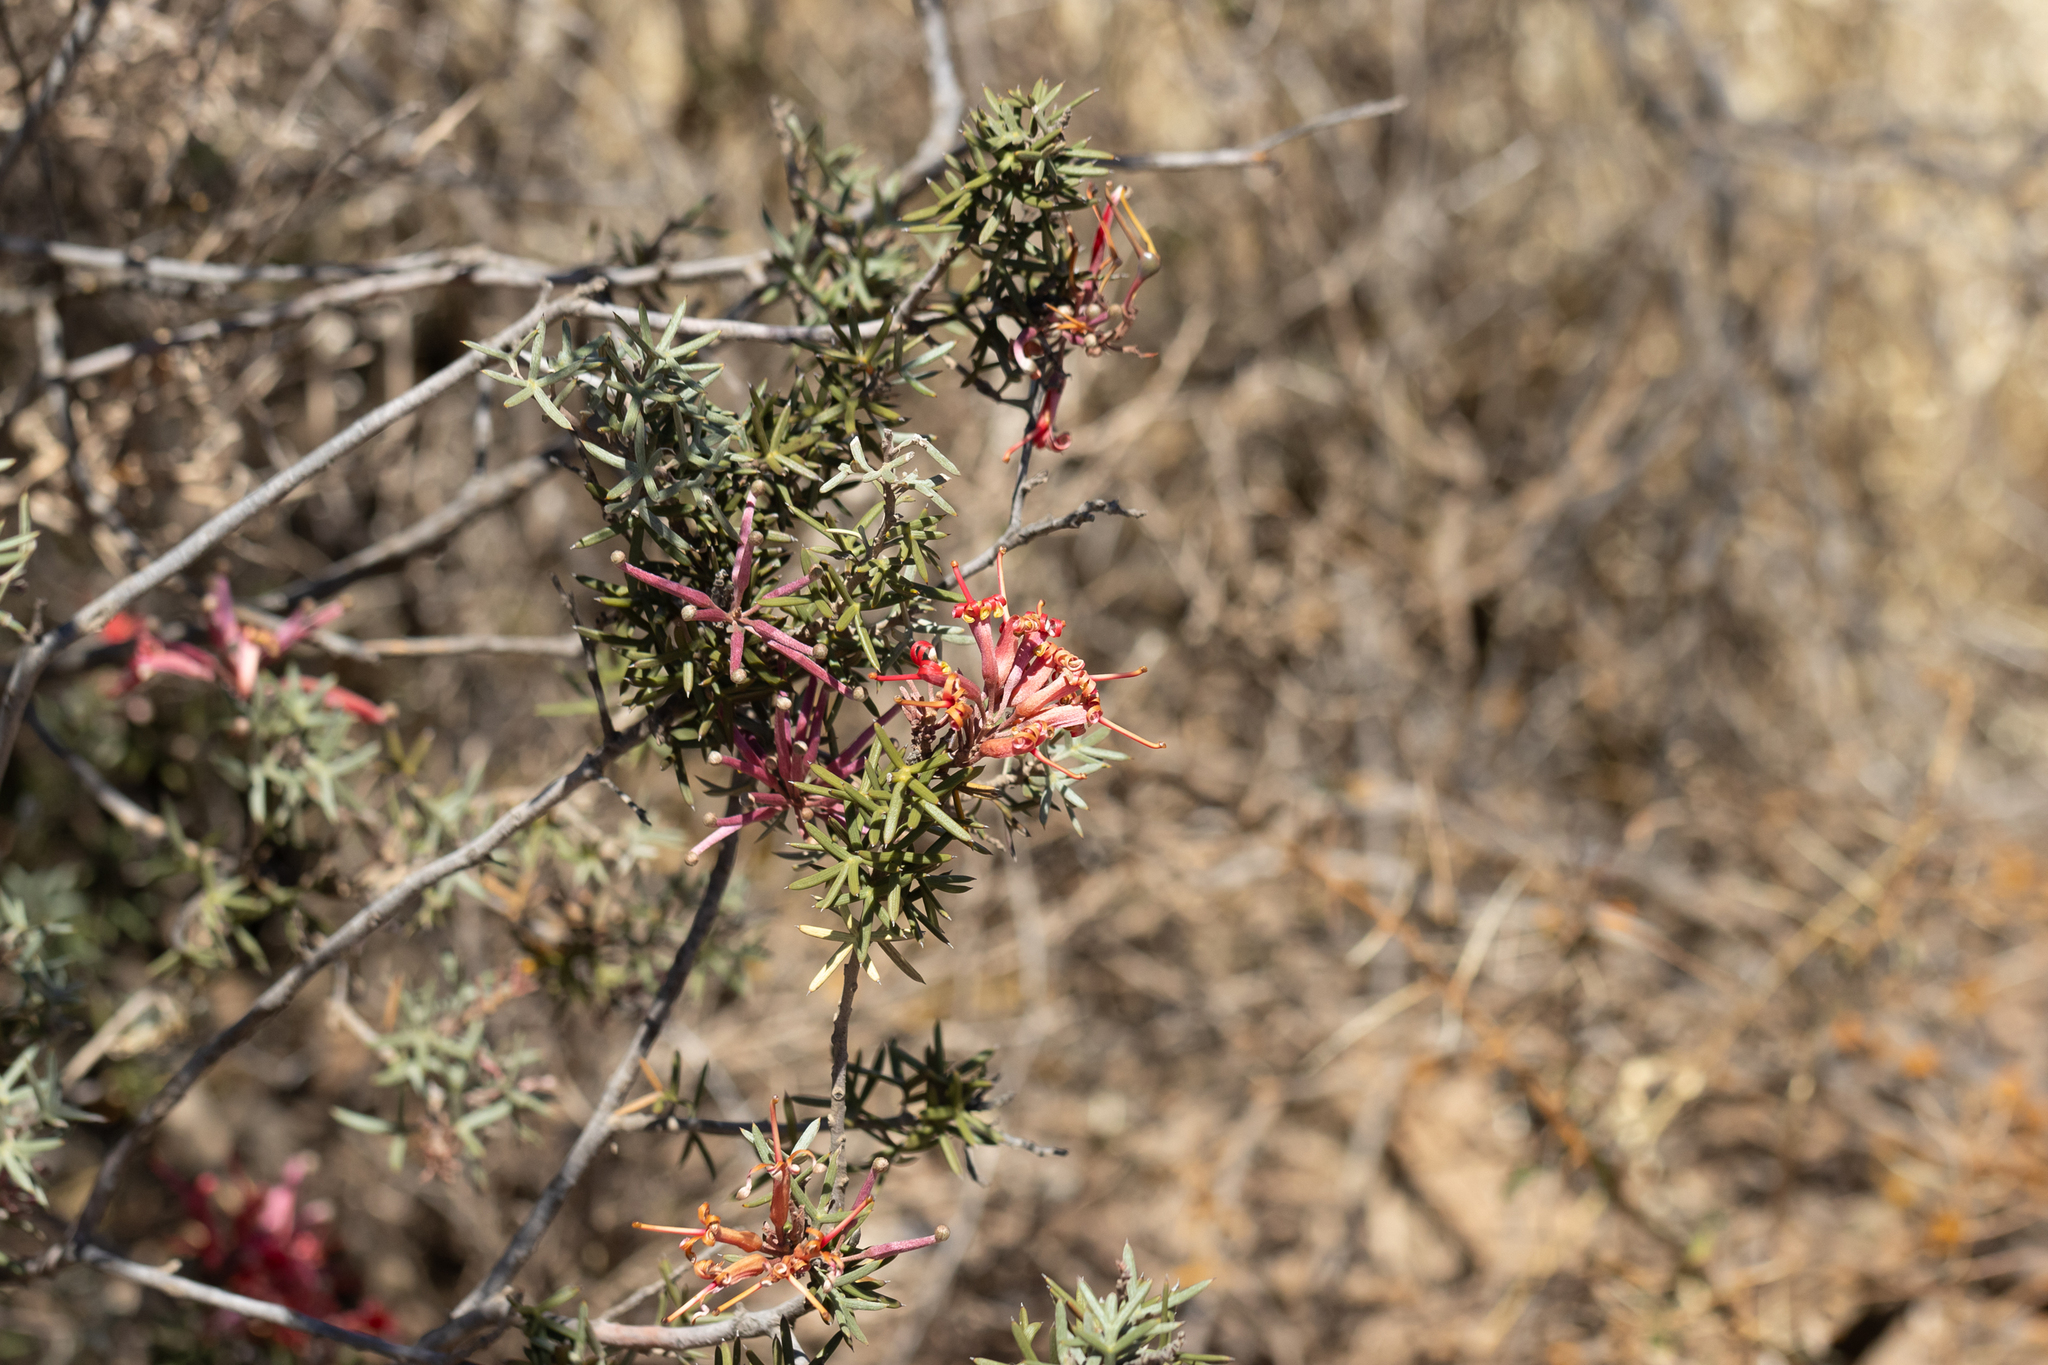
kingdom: Plantae
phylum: Tracheophyta
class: Magnoliopsida
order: Proteales
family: Proteaceae
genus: Grevillea
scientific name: Grevillea huegelii
